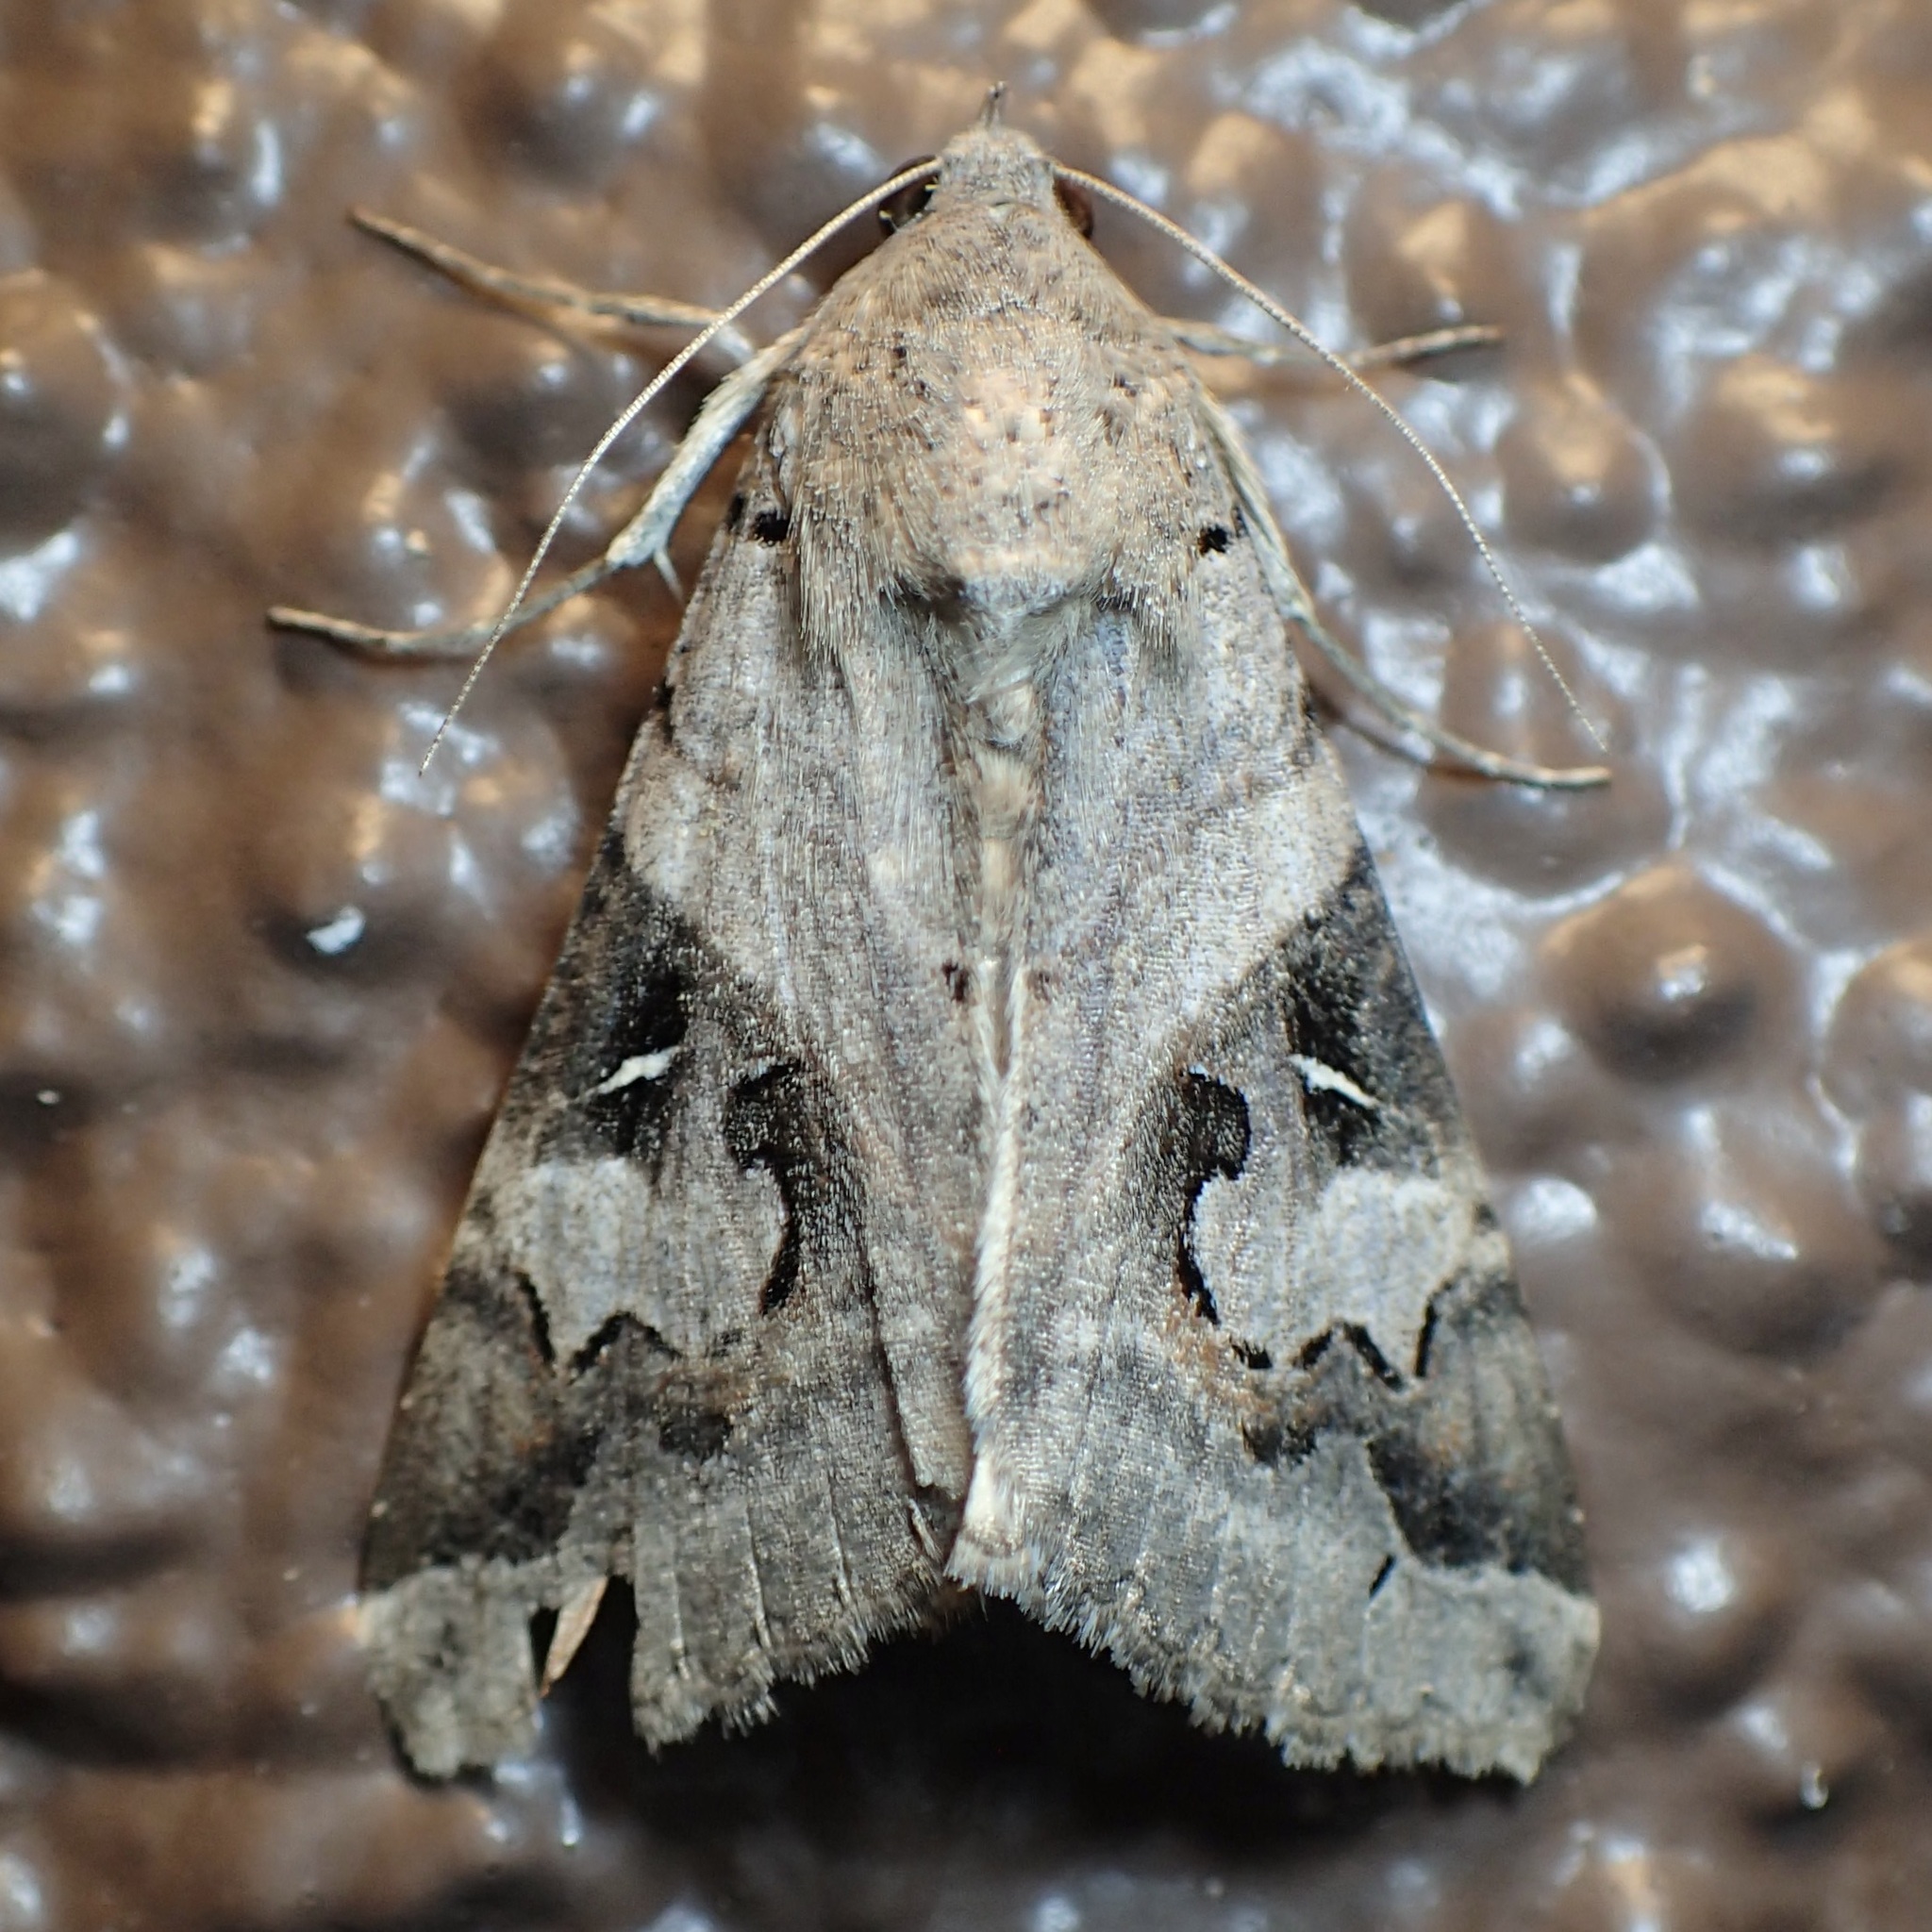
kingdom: Animalia
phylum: Arthropoda
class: Insecta
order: Lepidoptera
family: Erebidae
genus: Melipotis
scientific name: Melipotis indomita
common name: Moth
